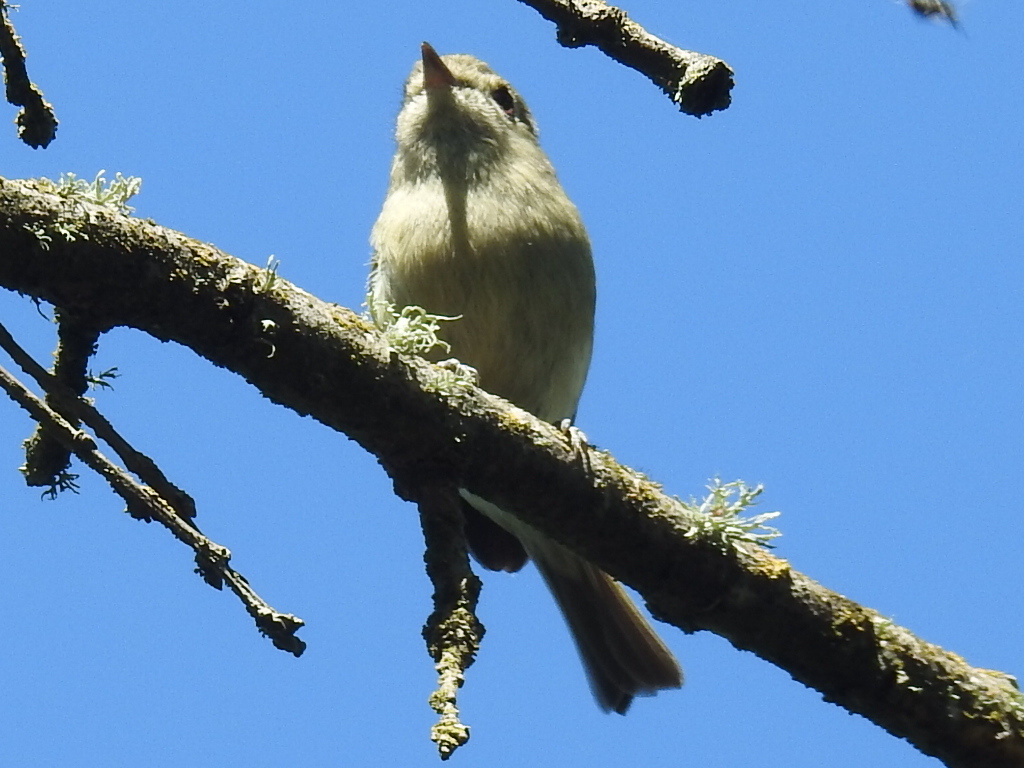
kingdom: Animalia
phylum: Chordata
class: Aves
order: Passeriformes
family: Vireonidae
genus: Vireo
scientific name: Vireo huttoni
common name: Hutton's vireo
